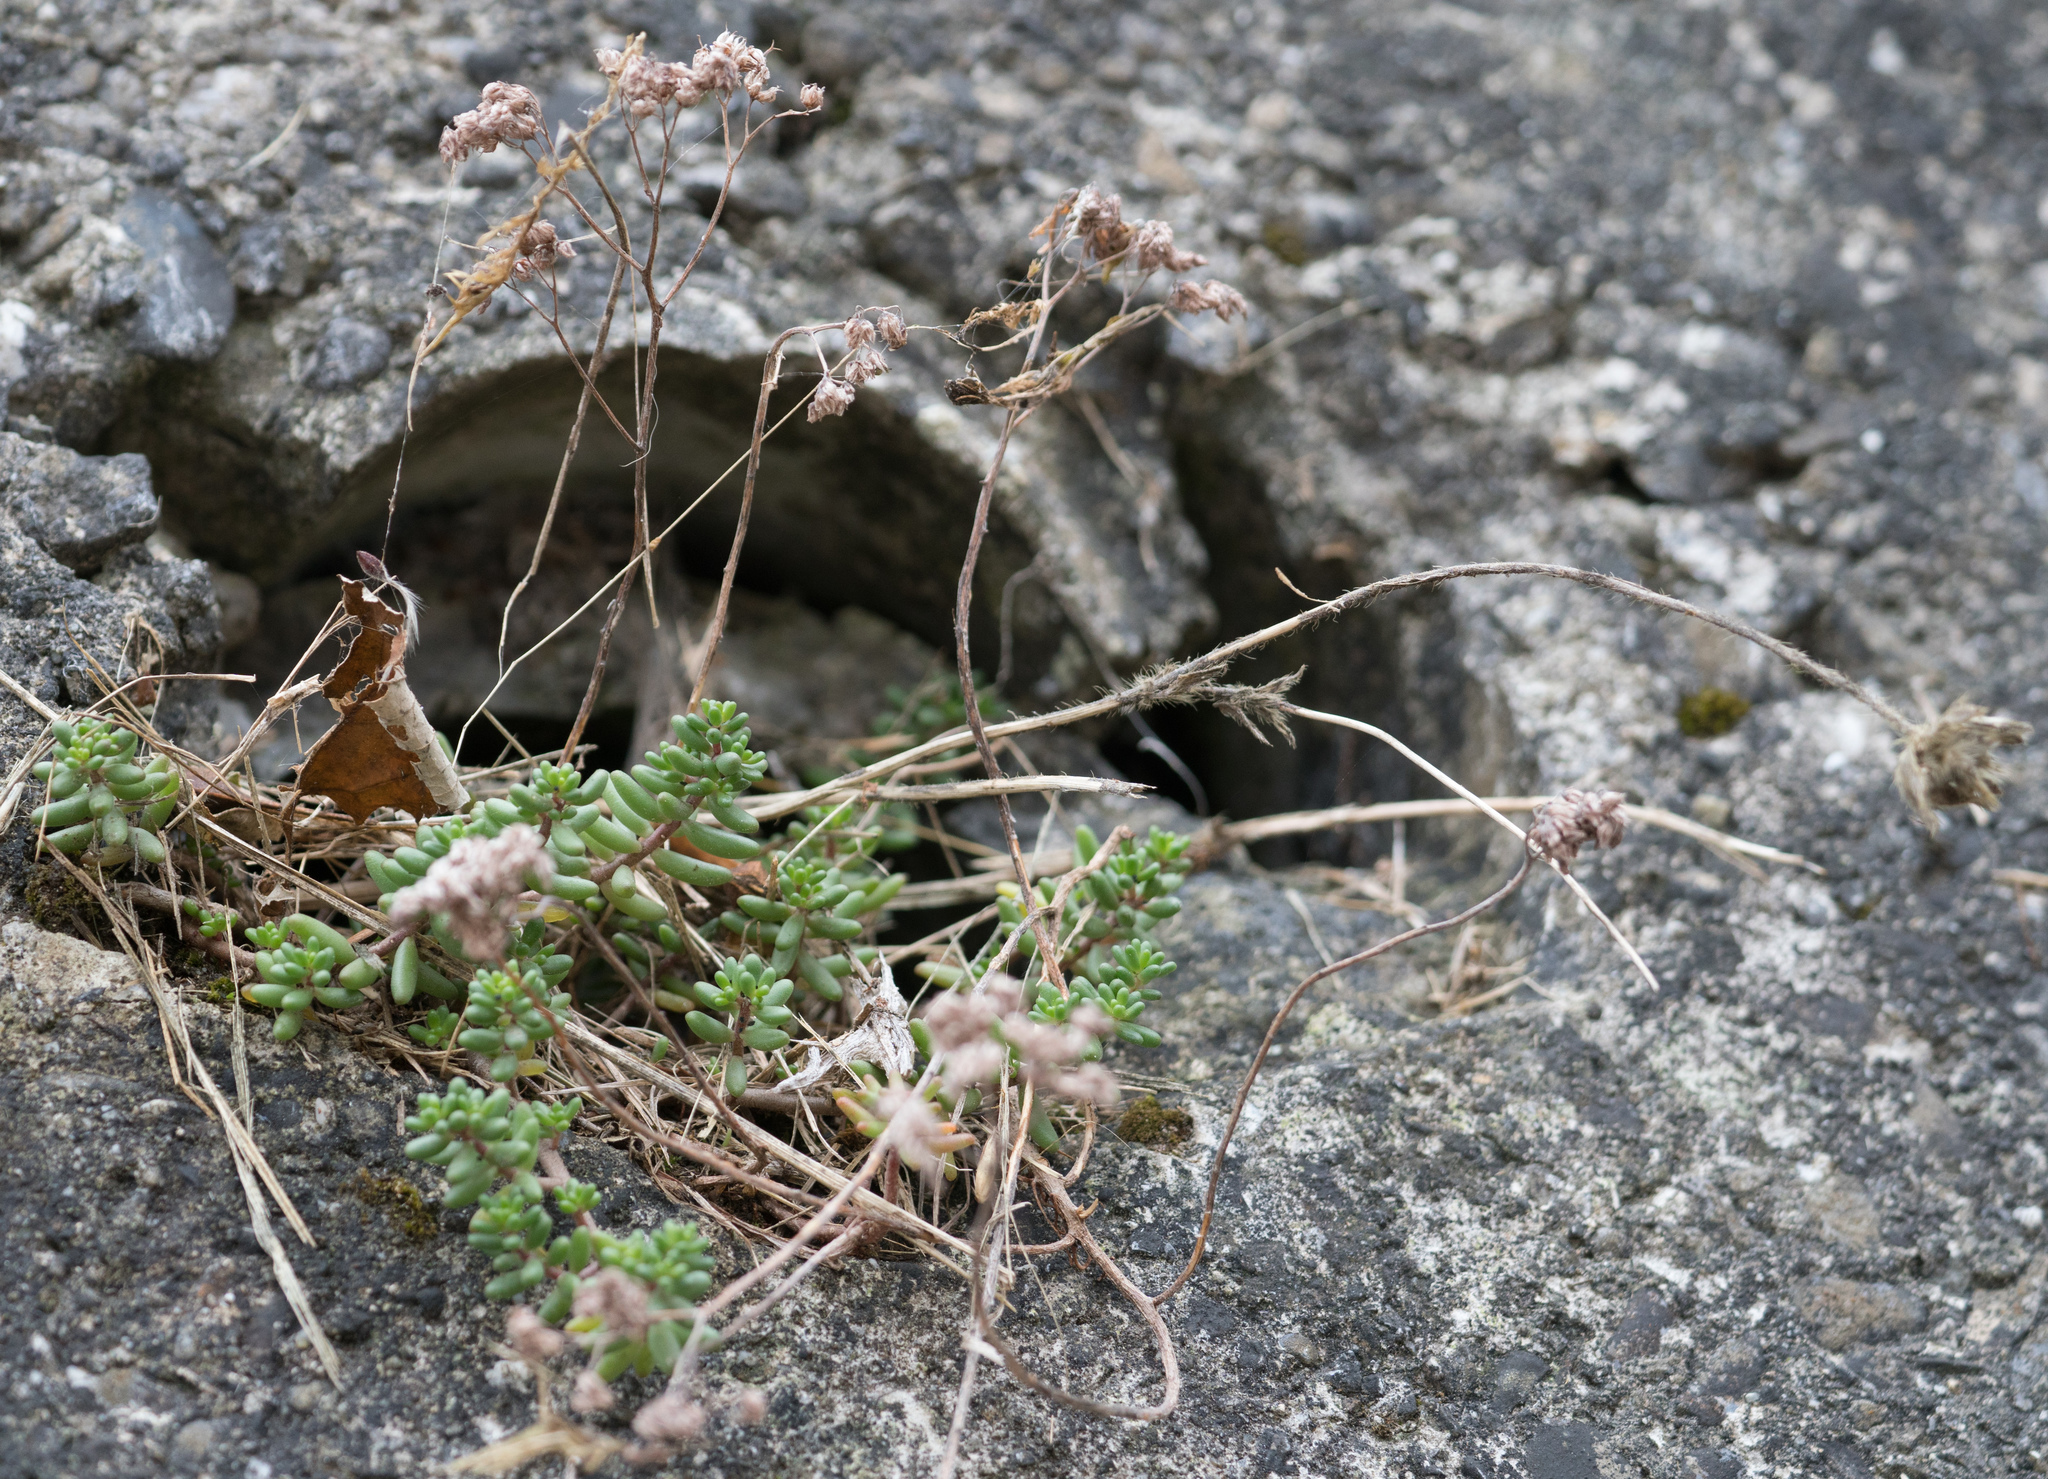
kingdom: Plantae
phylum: Tracheophyta
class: Magnoliopsida
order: Saxifragales
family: Crassulaceae
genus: Sedum
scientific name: Sedum album
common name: White stonecrop
